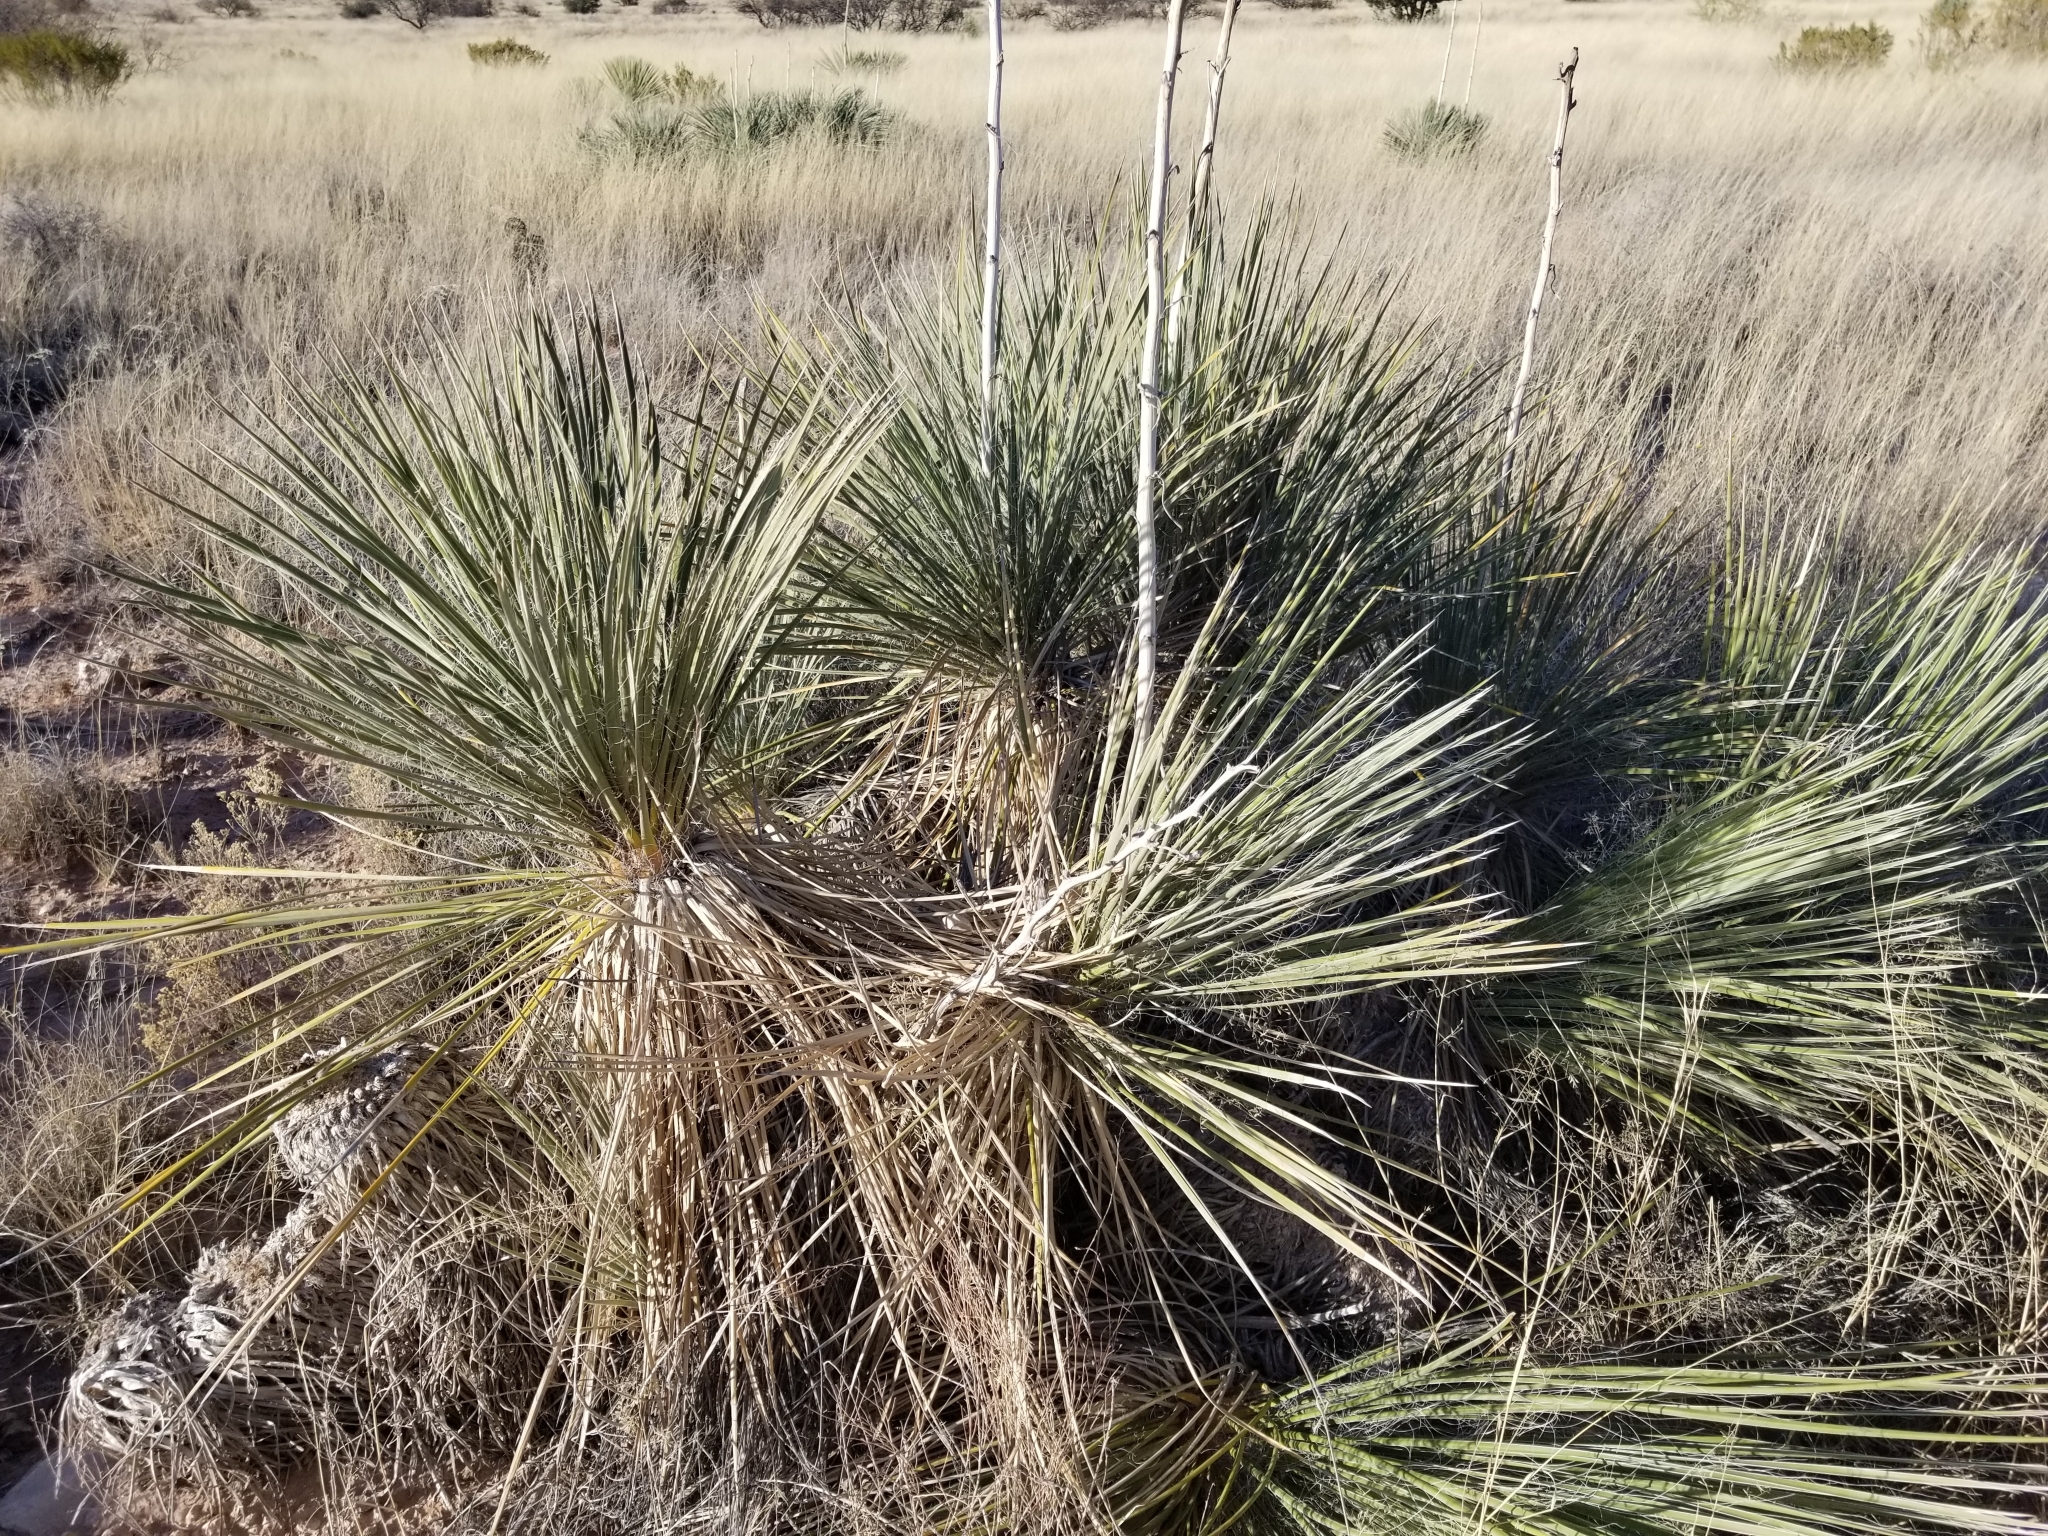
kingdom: Plantae
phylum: Tracheophyta
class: Liliopsida
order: Asparagales
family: Asparagaceae
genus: Yucca
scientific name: Yucca elata
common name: Palmella
